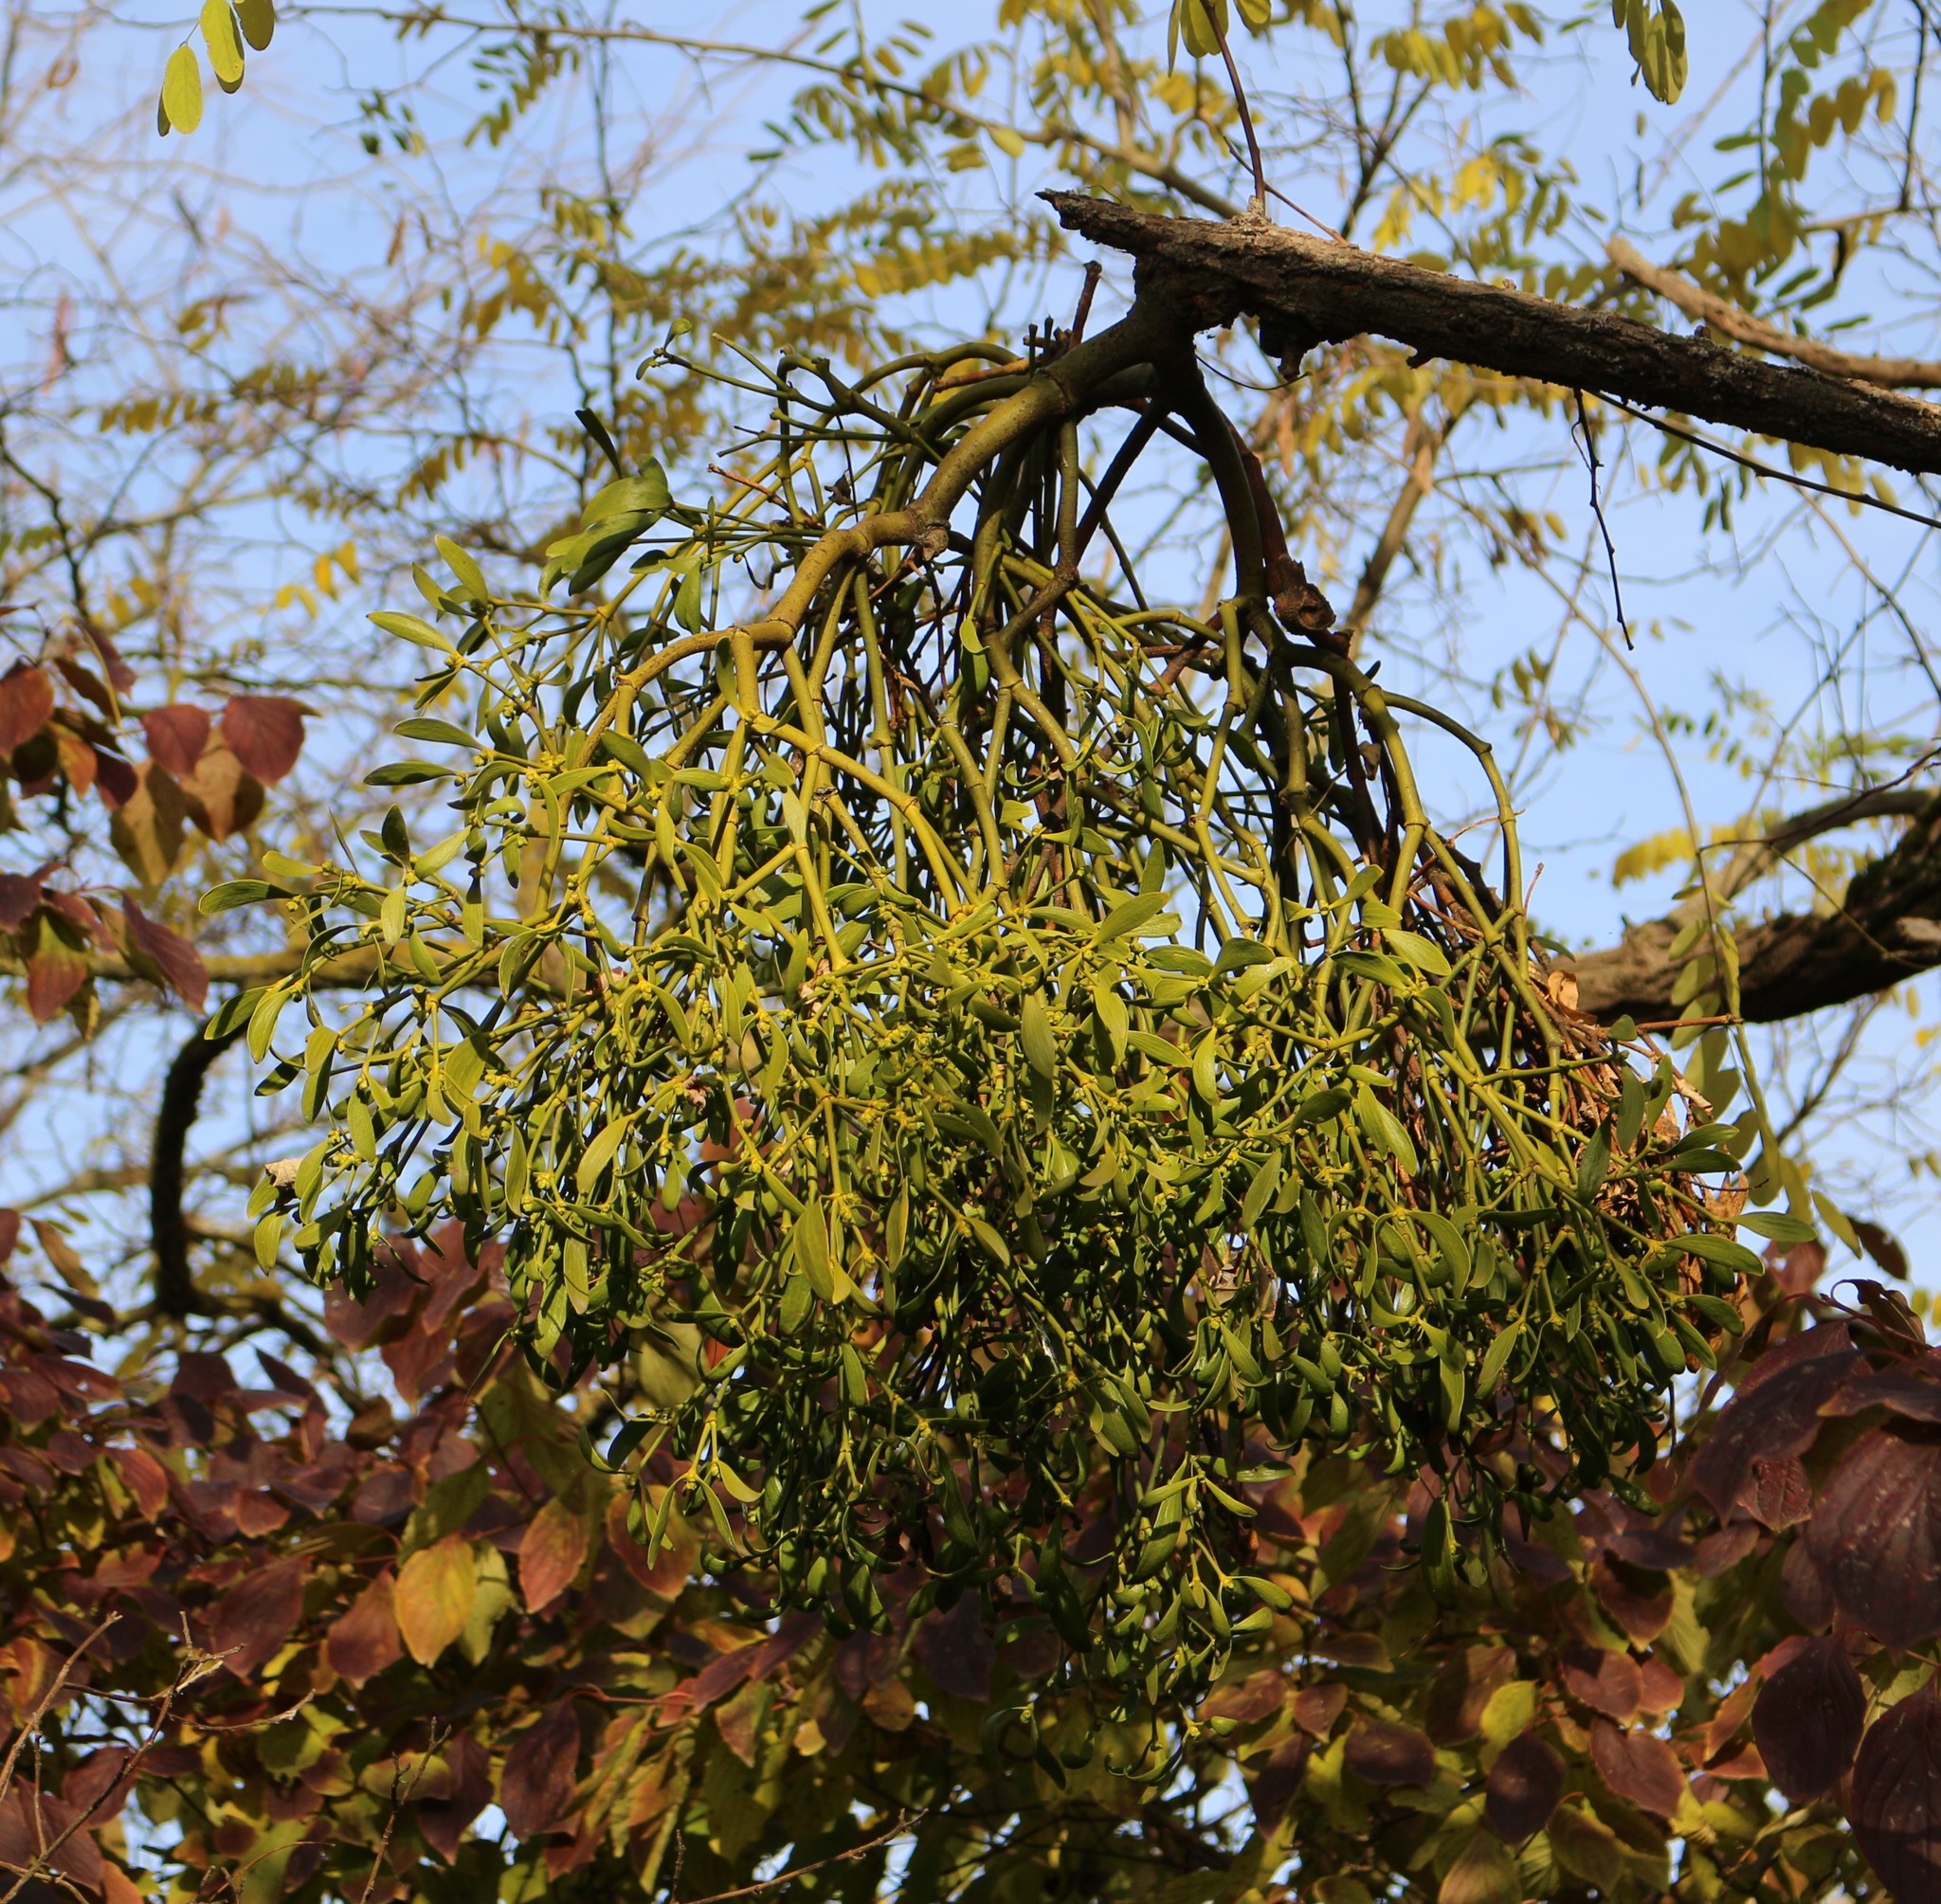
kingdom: Plantae
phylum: Tracheophyta
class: Magnoliopsida
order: Santalales
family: Viscaceae
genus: Viscum
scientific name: Viscum album
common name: Mistletoe
